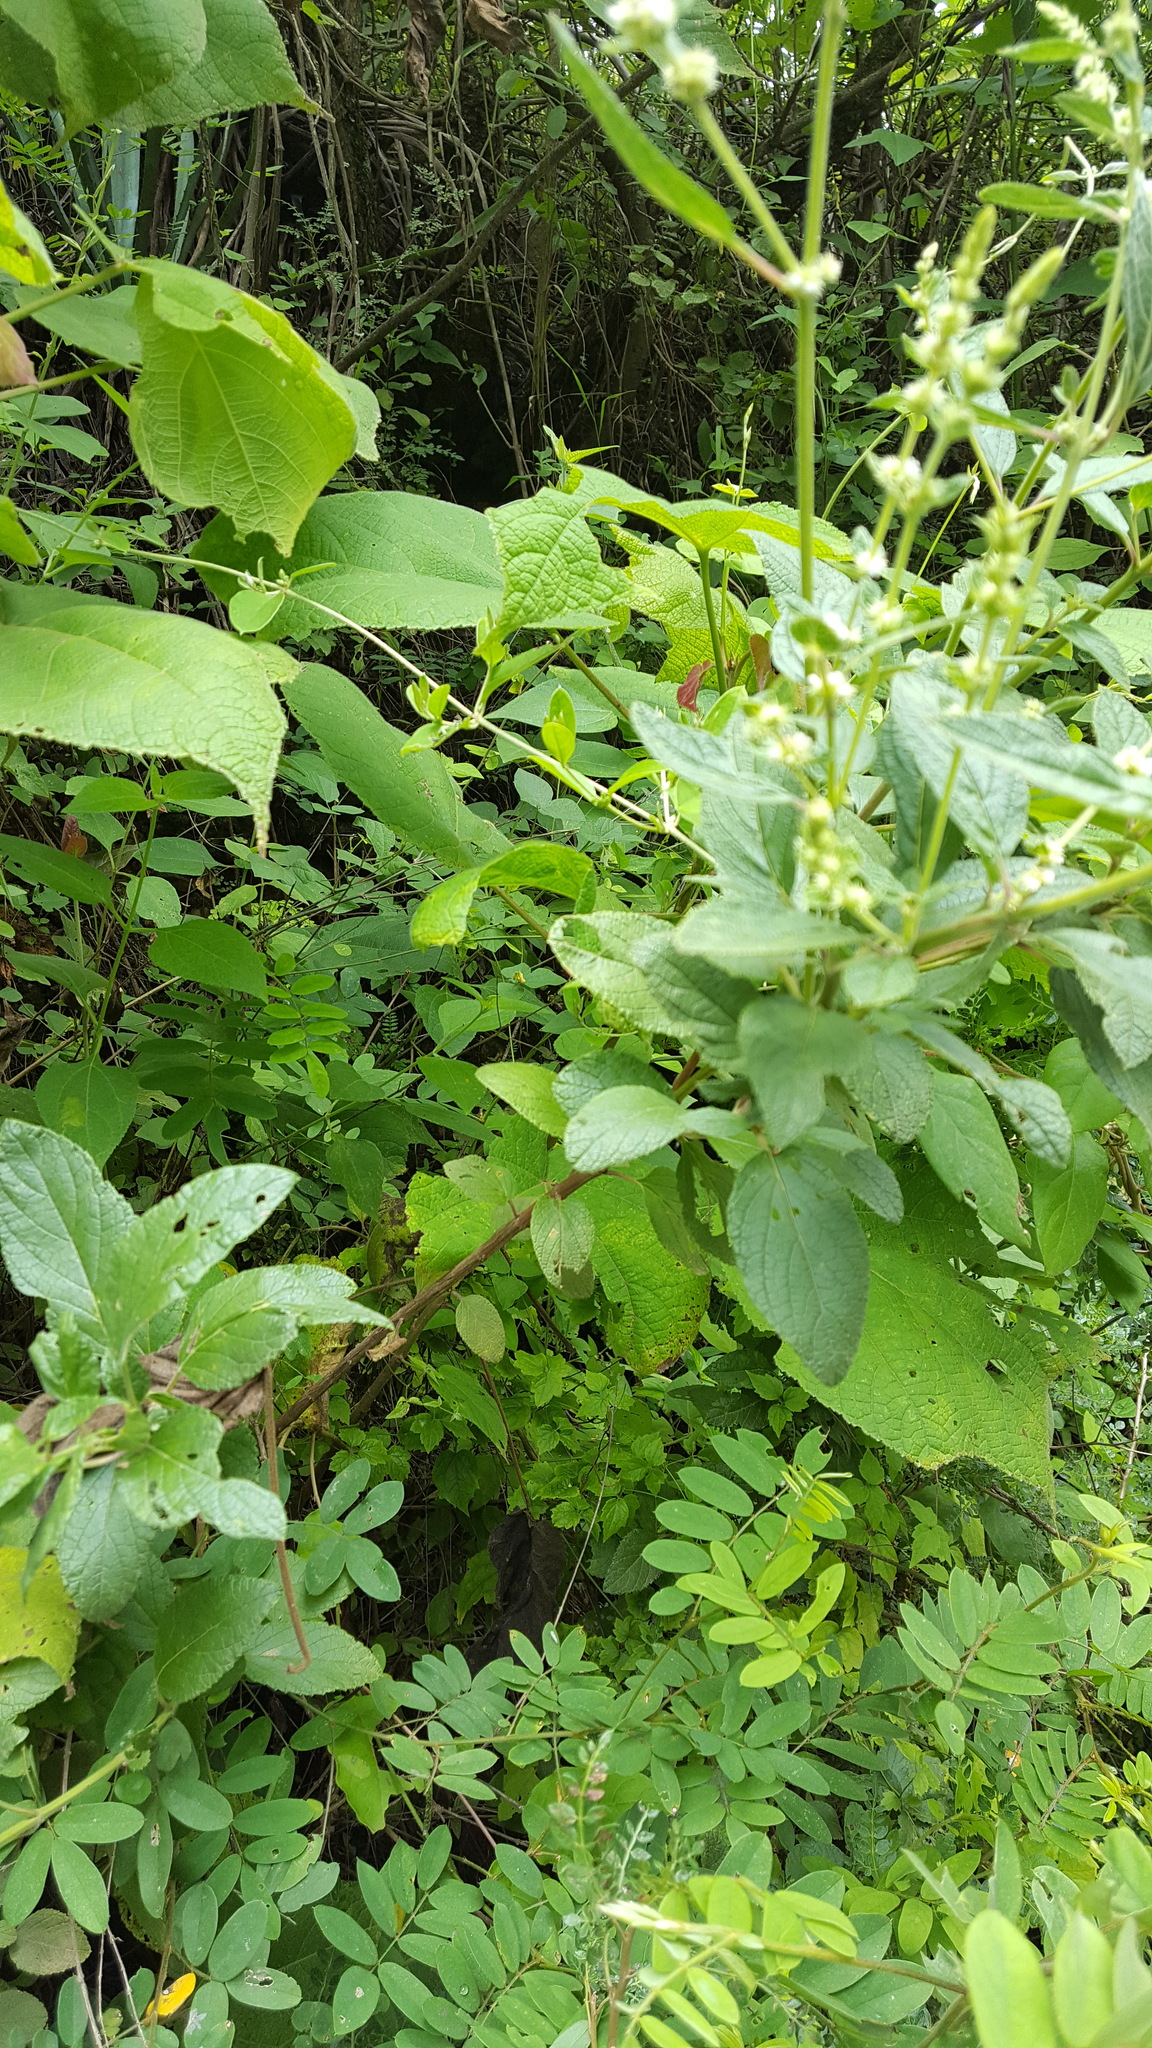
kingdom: Plantae
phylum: Tracheophyta
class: Magnoliopsida
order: Lamiales
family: Lamiaceae
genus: Asterohyptis
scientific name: Asterohyptis stellulata
